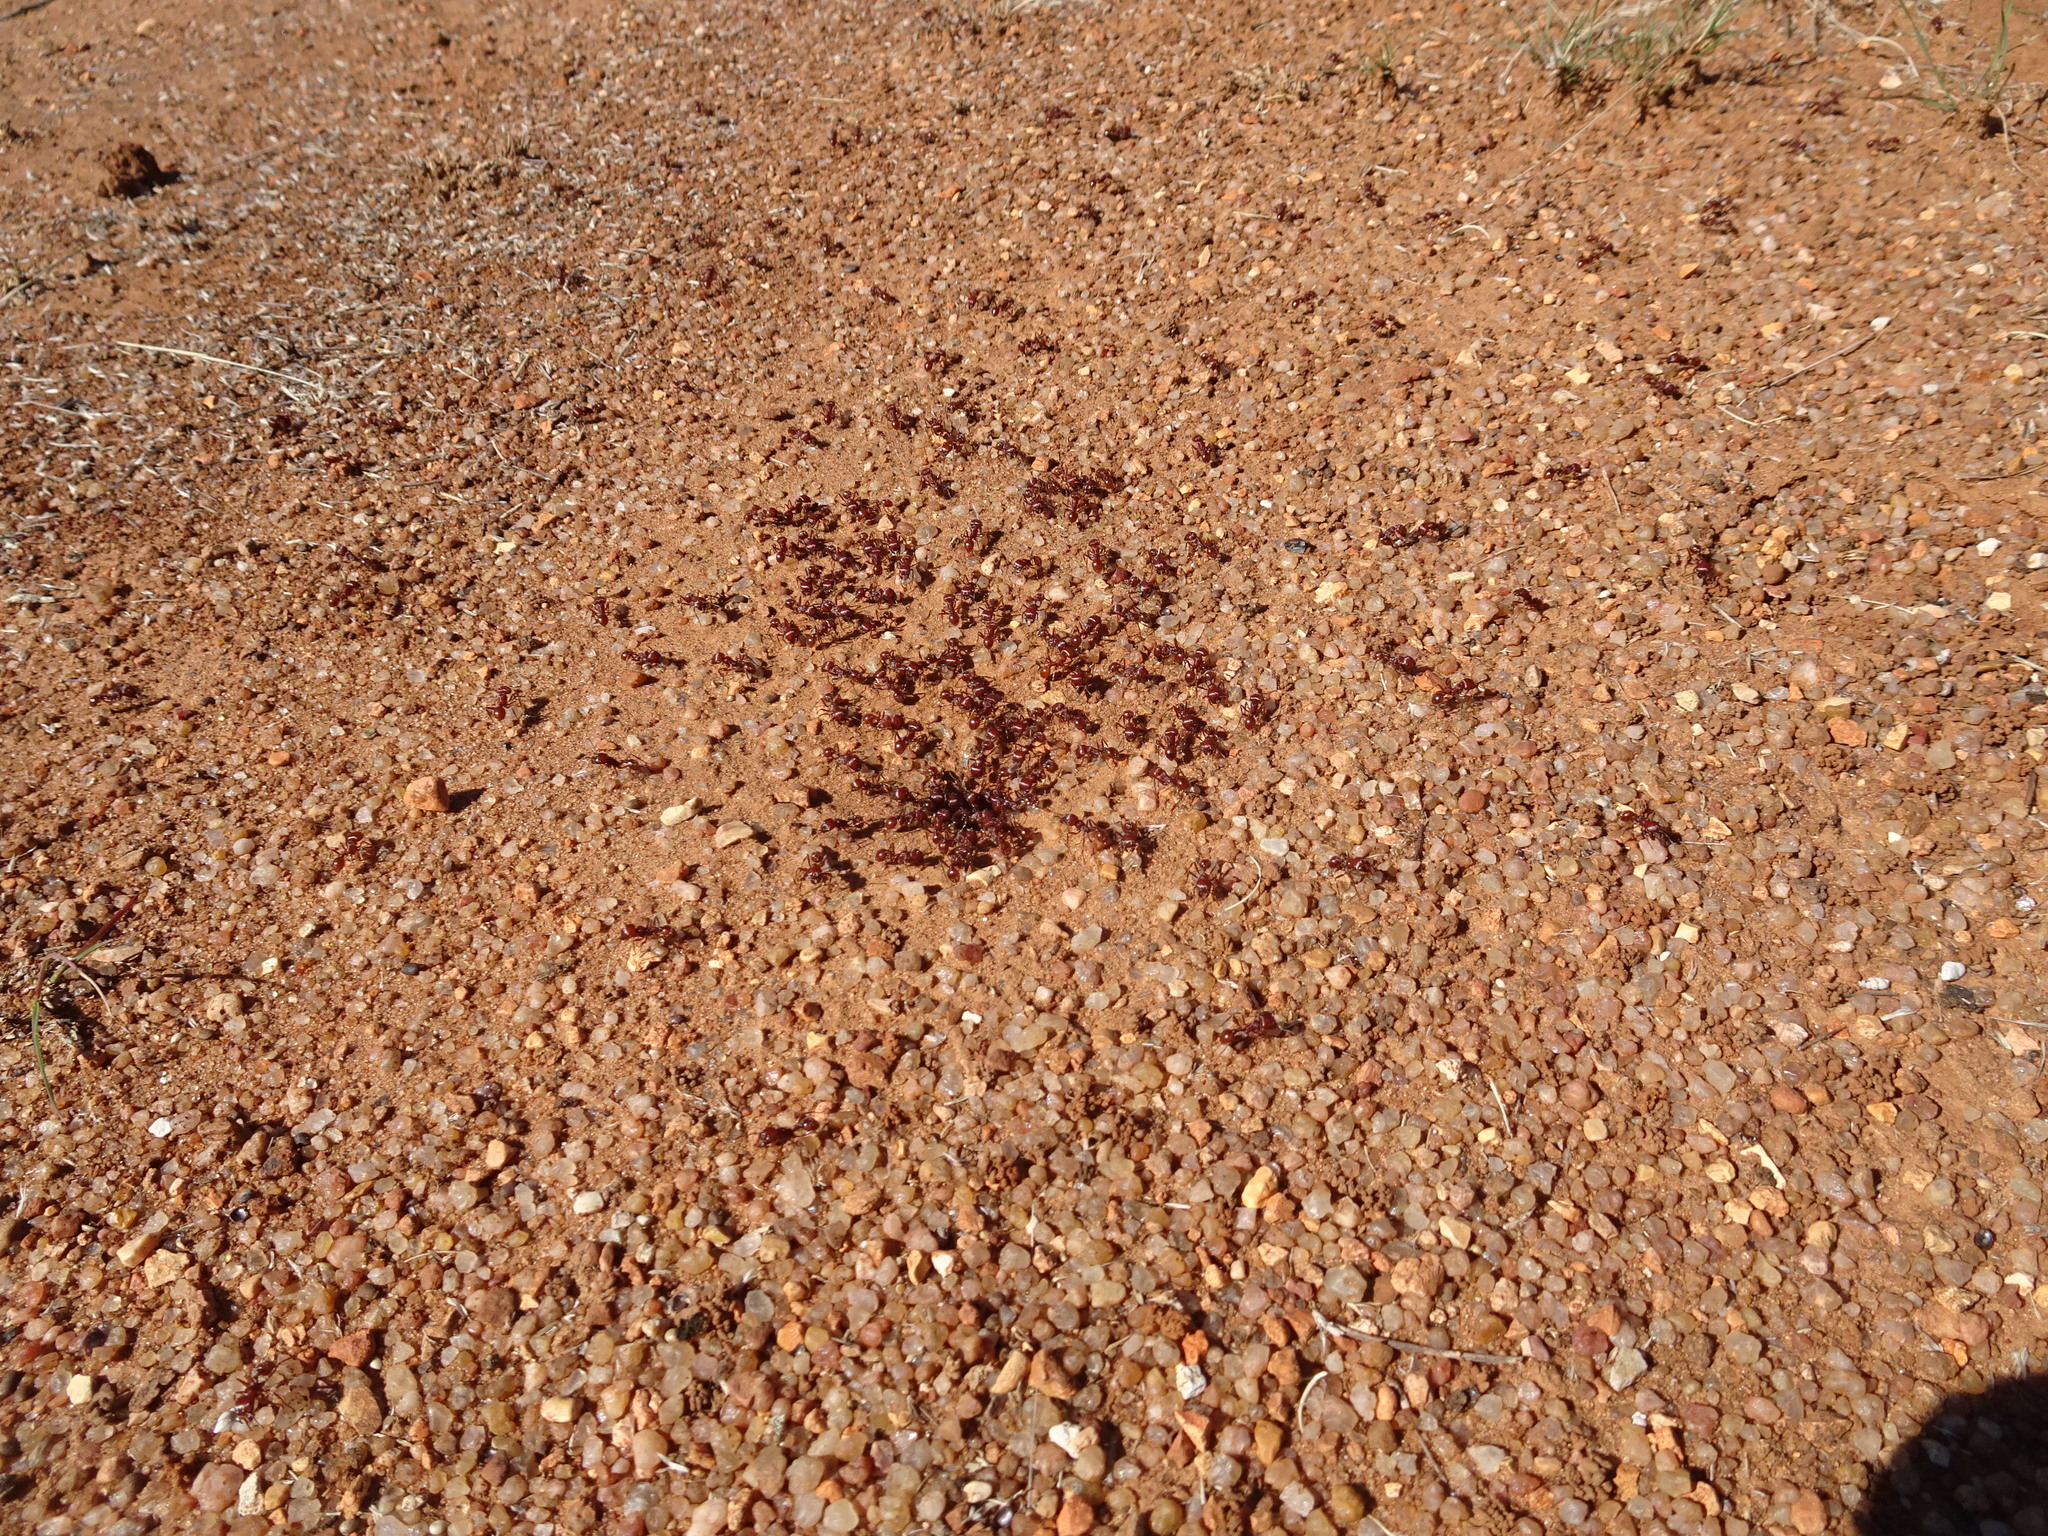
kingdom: Animalia
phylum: Arthropoda
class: Insecta
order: Hymenoptera
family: Formicidae
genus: Pogonomyrmex
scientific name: Pogonomyrmex barbatus
